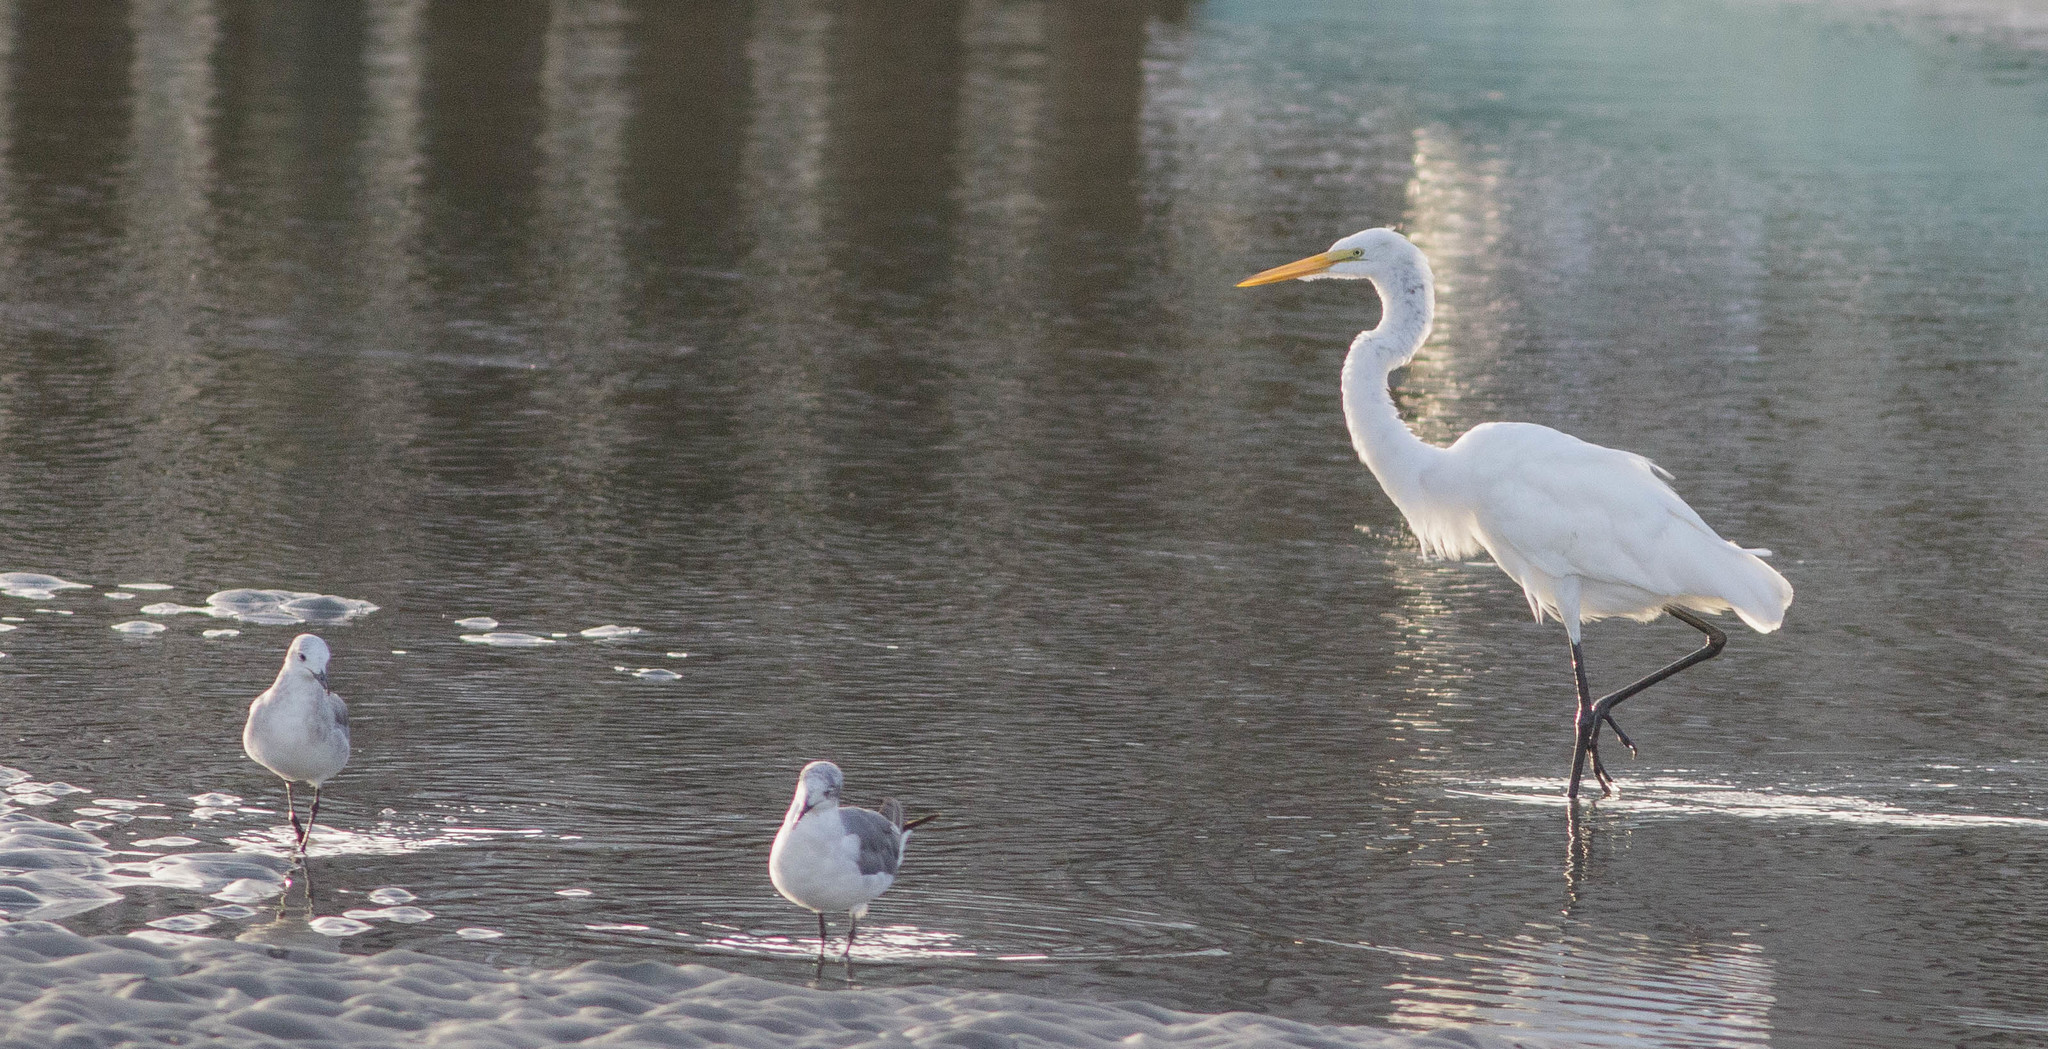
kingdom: Animalia
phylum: Chordata
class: Aves
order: Pelecaniformes
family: Ardeidae
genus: Ardea
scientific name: Ardea alba
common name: Great egret
